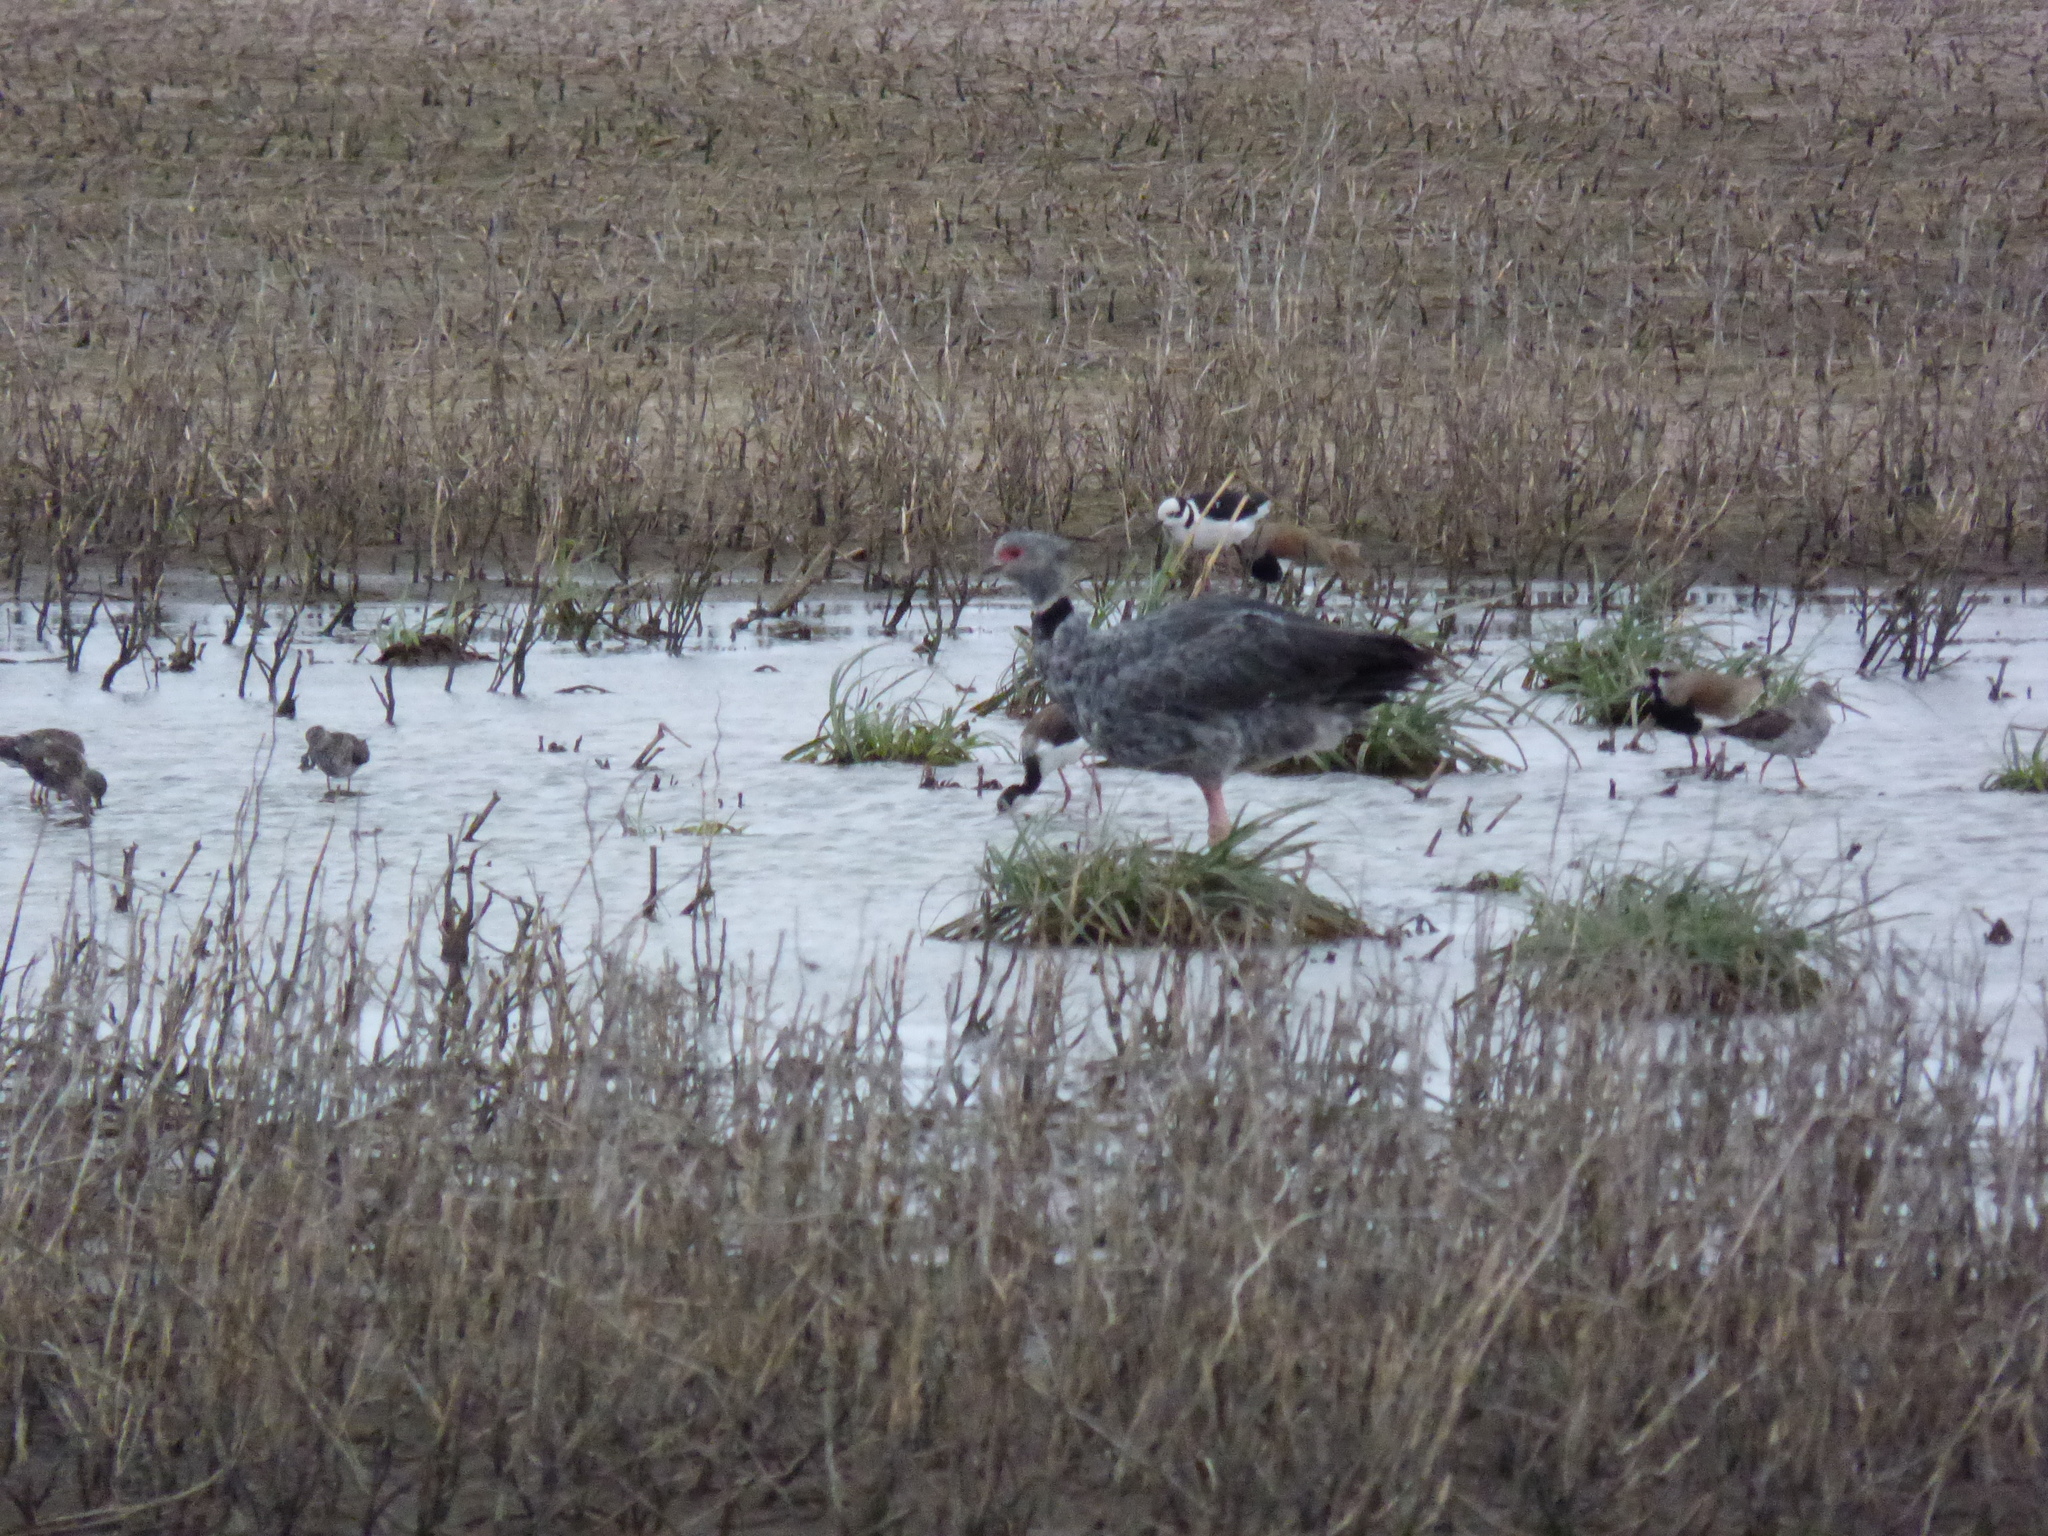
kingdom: Animalia
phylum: Chordata
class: Aves
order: Anseriformes
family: Anhimidae
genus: Chauna
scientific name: Chauna torquata
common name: Southern screamer
